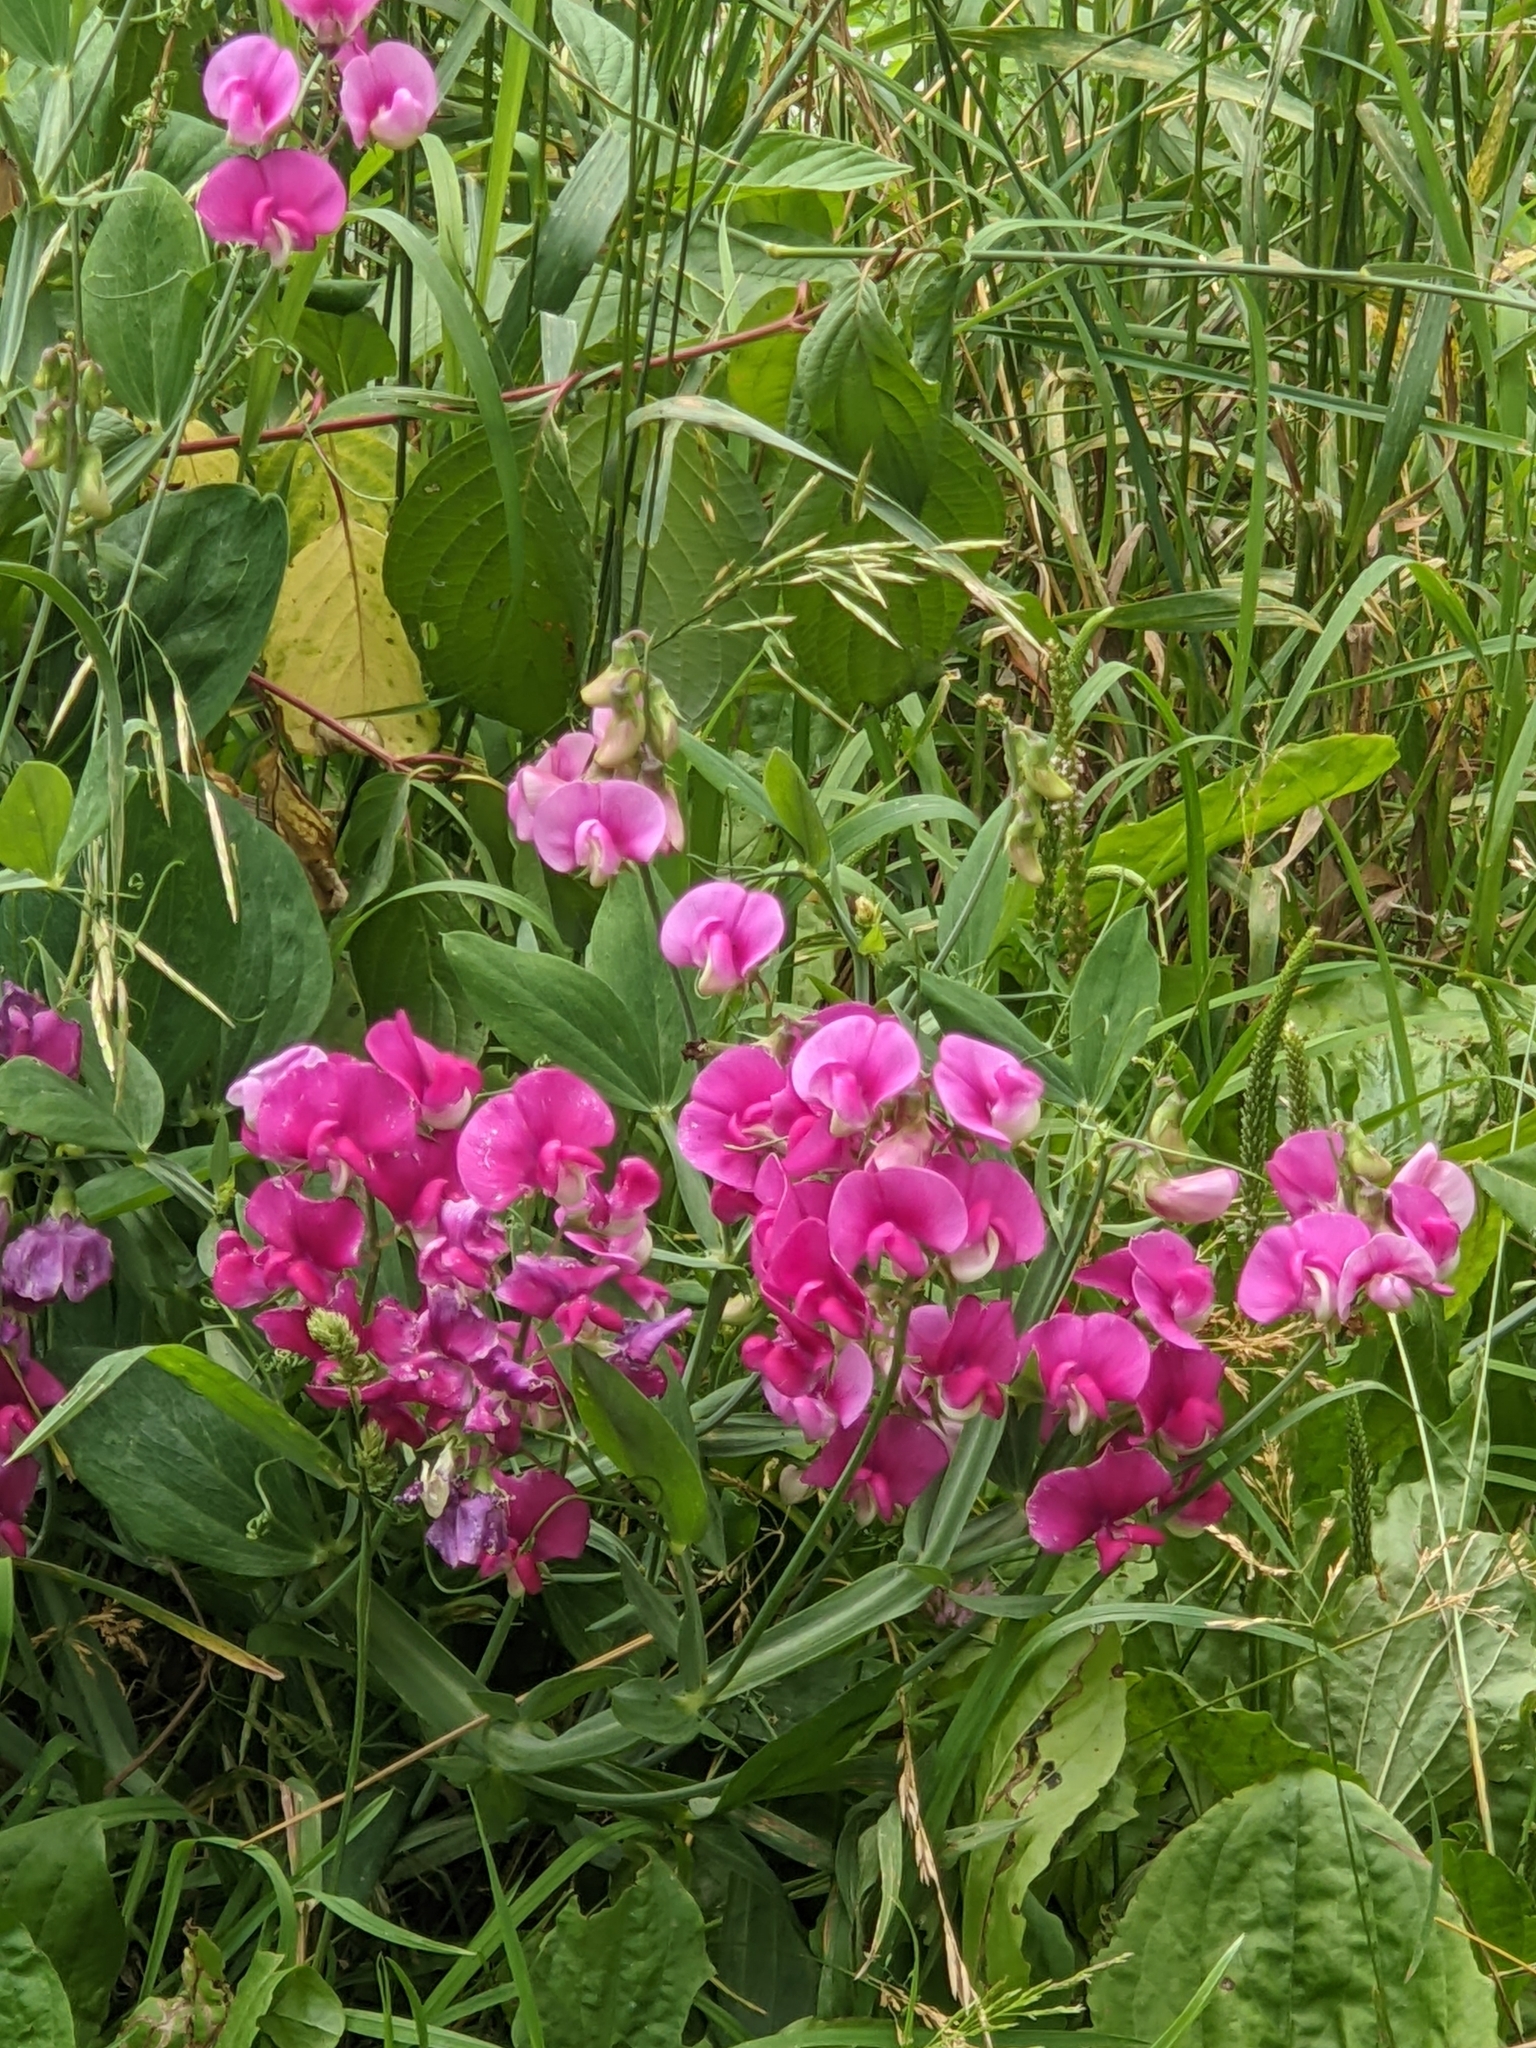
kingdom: Plantae
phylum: Tracheophyta
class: Magnoliopsida
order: Fabales
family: Fabaceae
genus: Lathyrus
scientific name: Lathyrus latifolius
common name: Perennial pea
